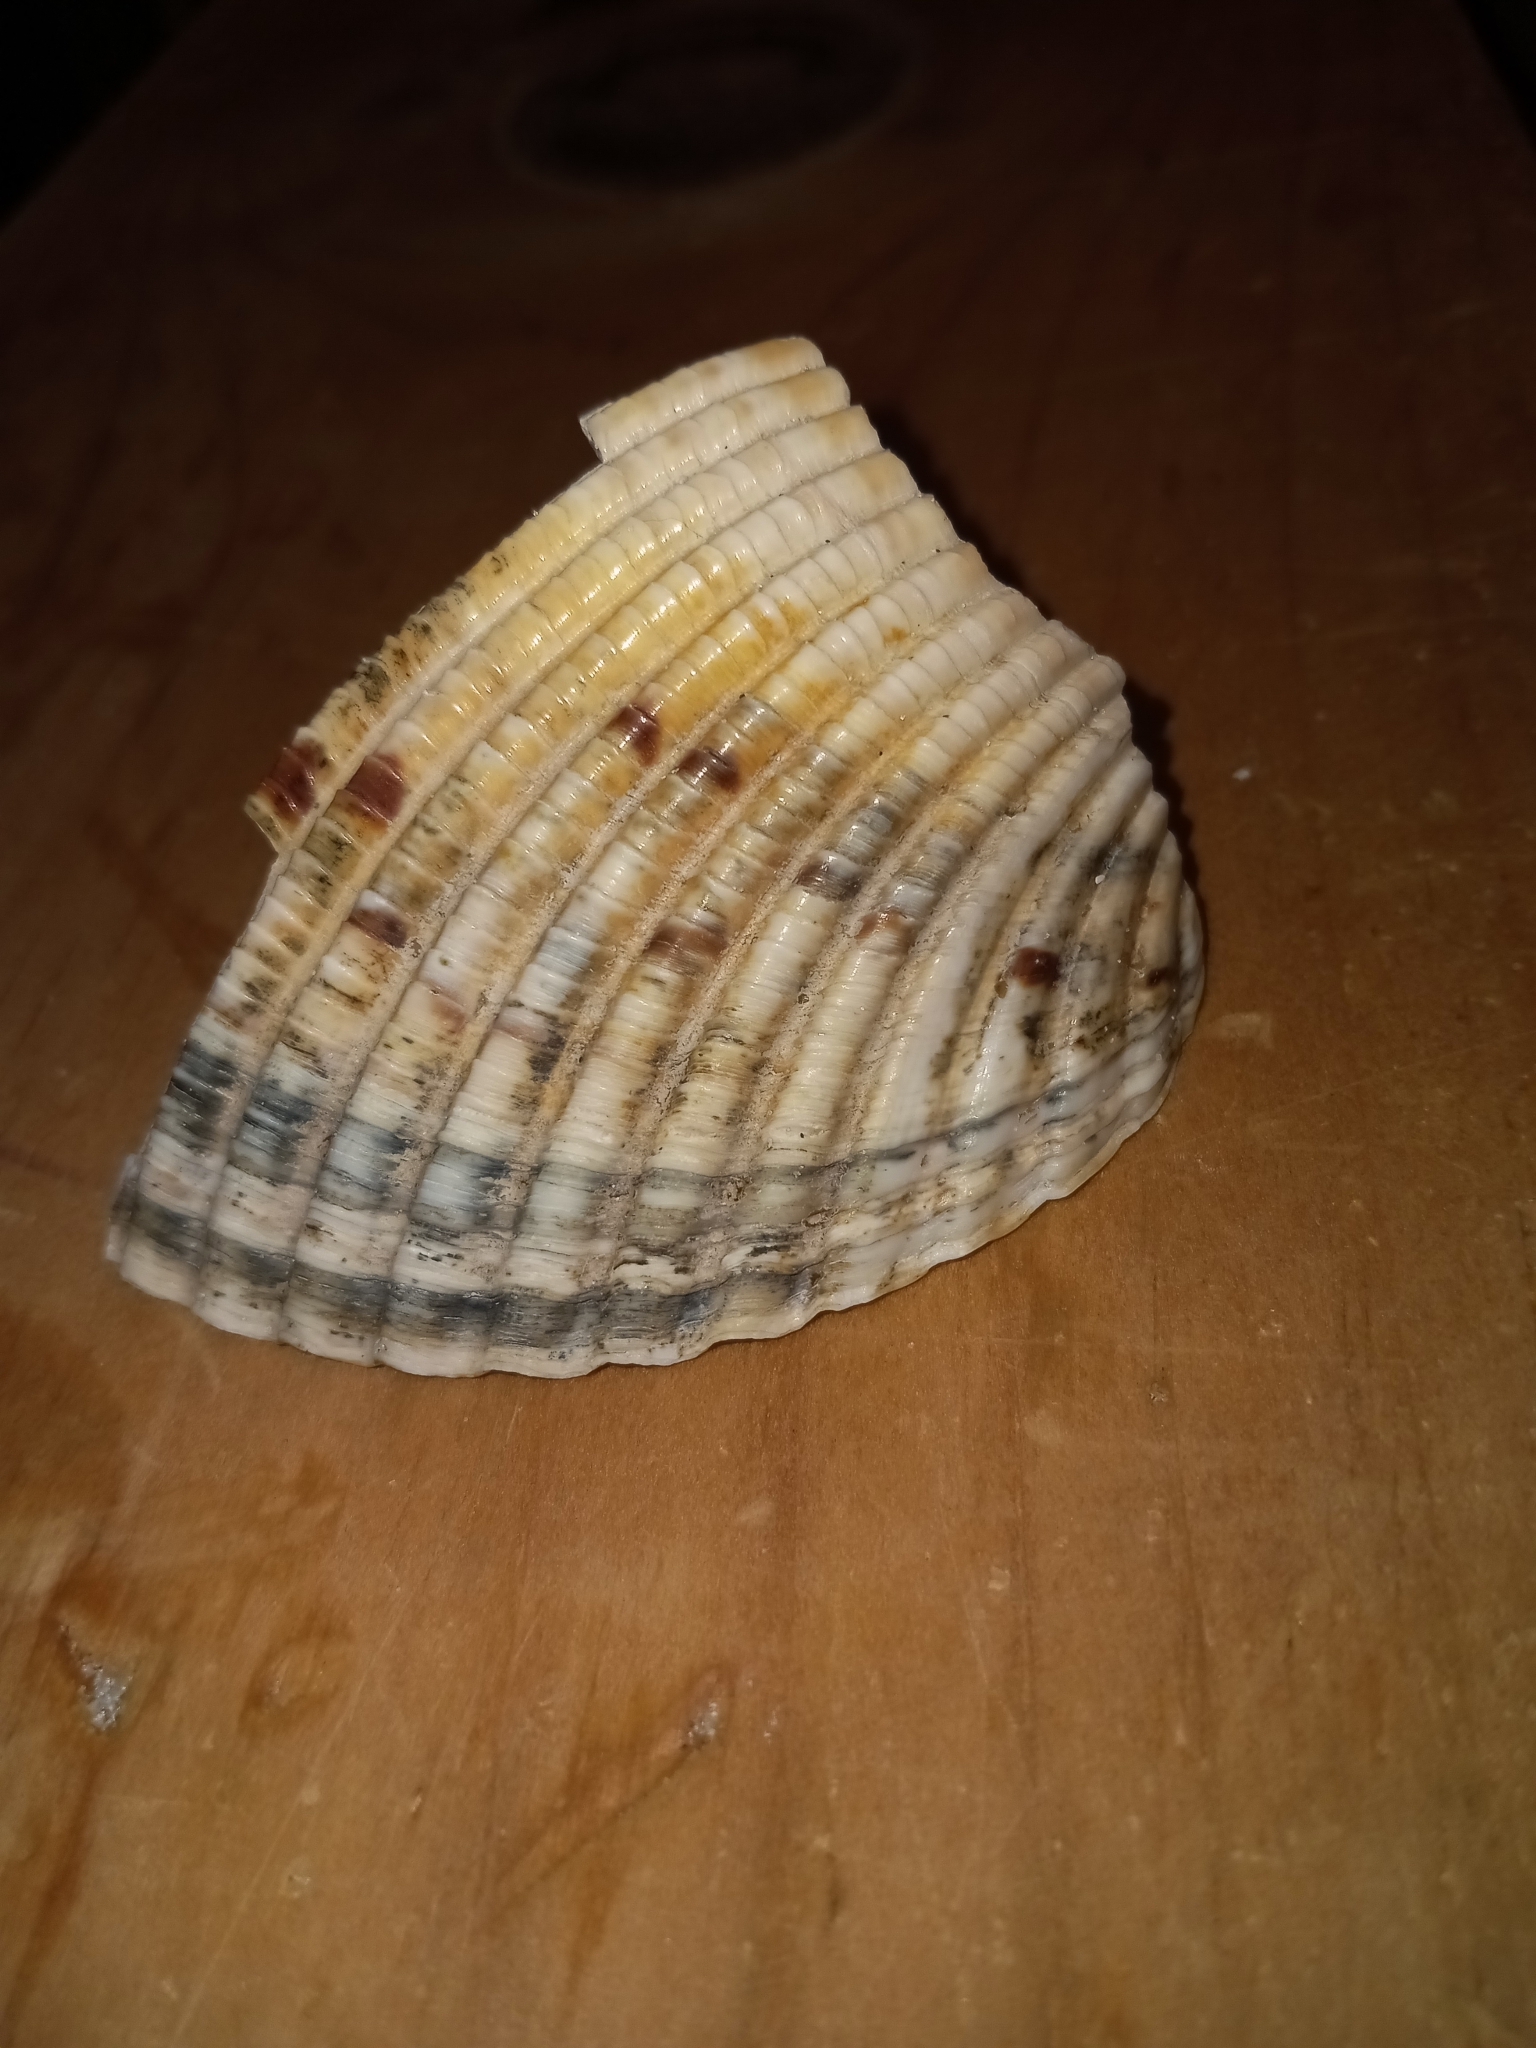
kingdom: Animalia
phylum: Mollusca
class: Bivalvia
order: Cardiida
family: Cardiidae
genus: Dinocardium
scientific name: Dinocardium robustum
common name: Atlantic giant cockle
